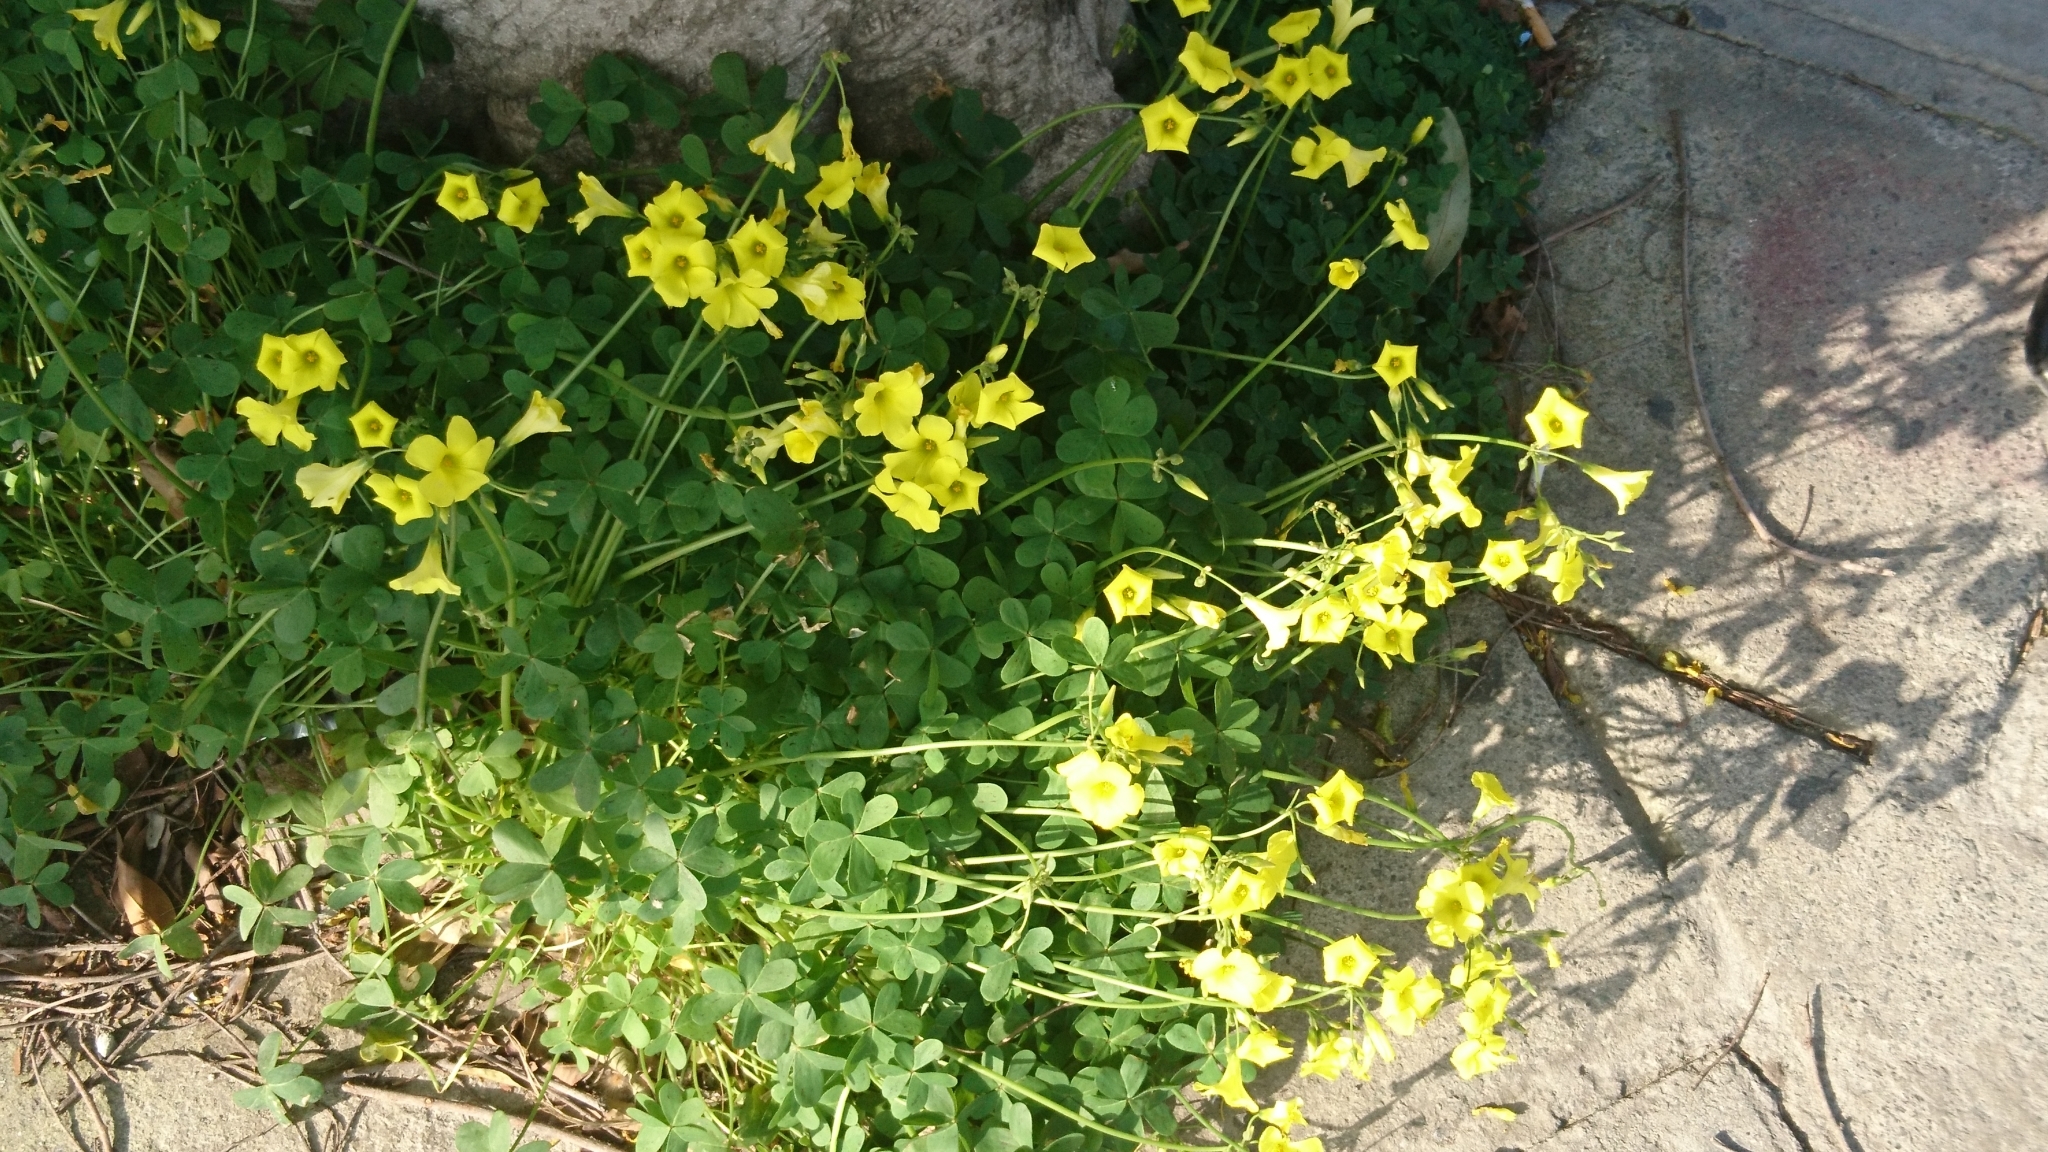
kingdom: Plantae
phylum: Tracheophyta
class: Magnoliopsida
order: Oxalidales
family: Oxalidaceae
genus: Oxalis
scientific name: Oxalis pes-caprae
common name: Bermuda-buttercup
